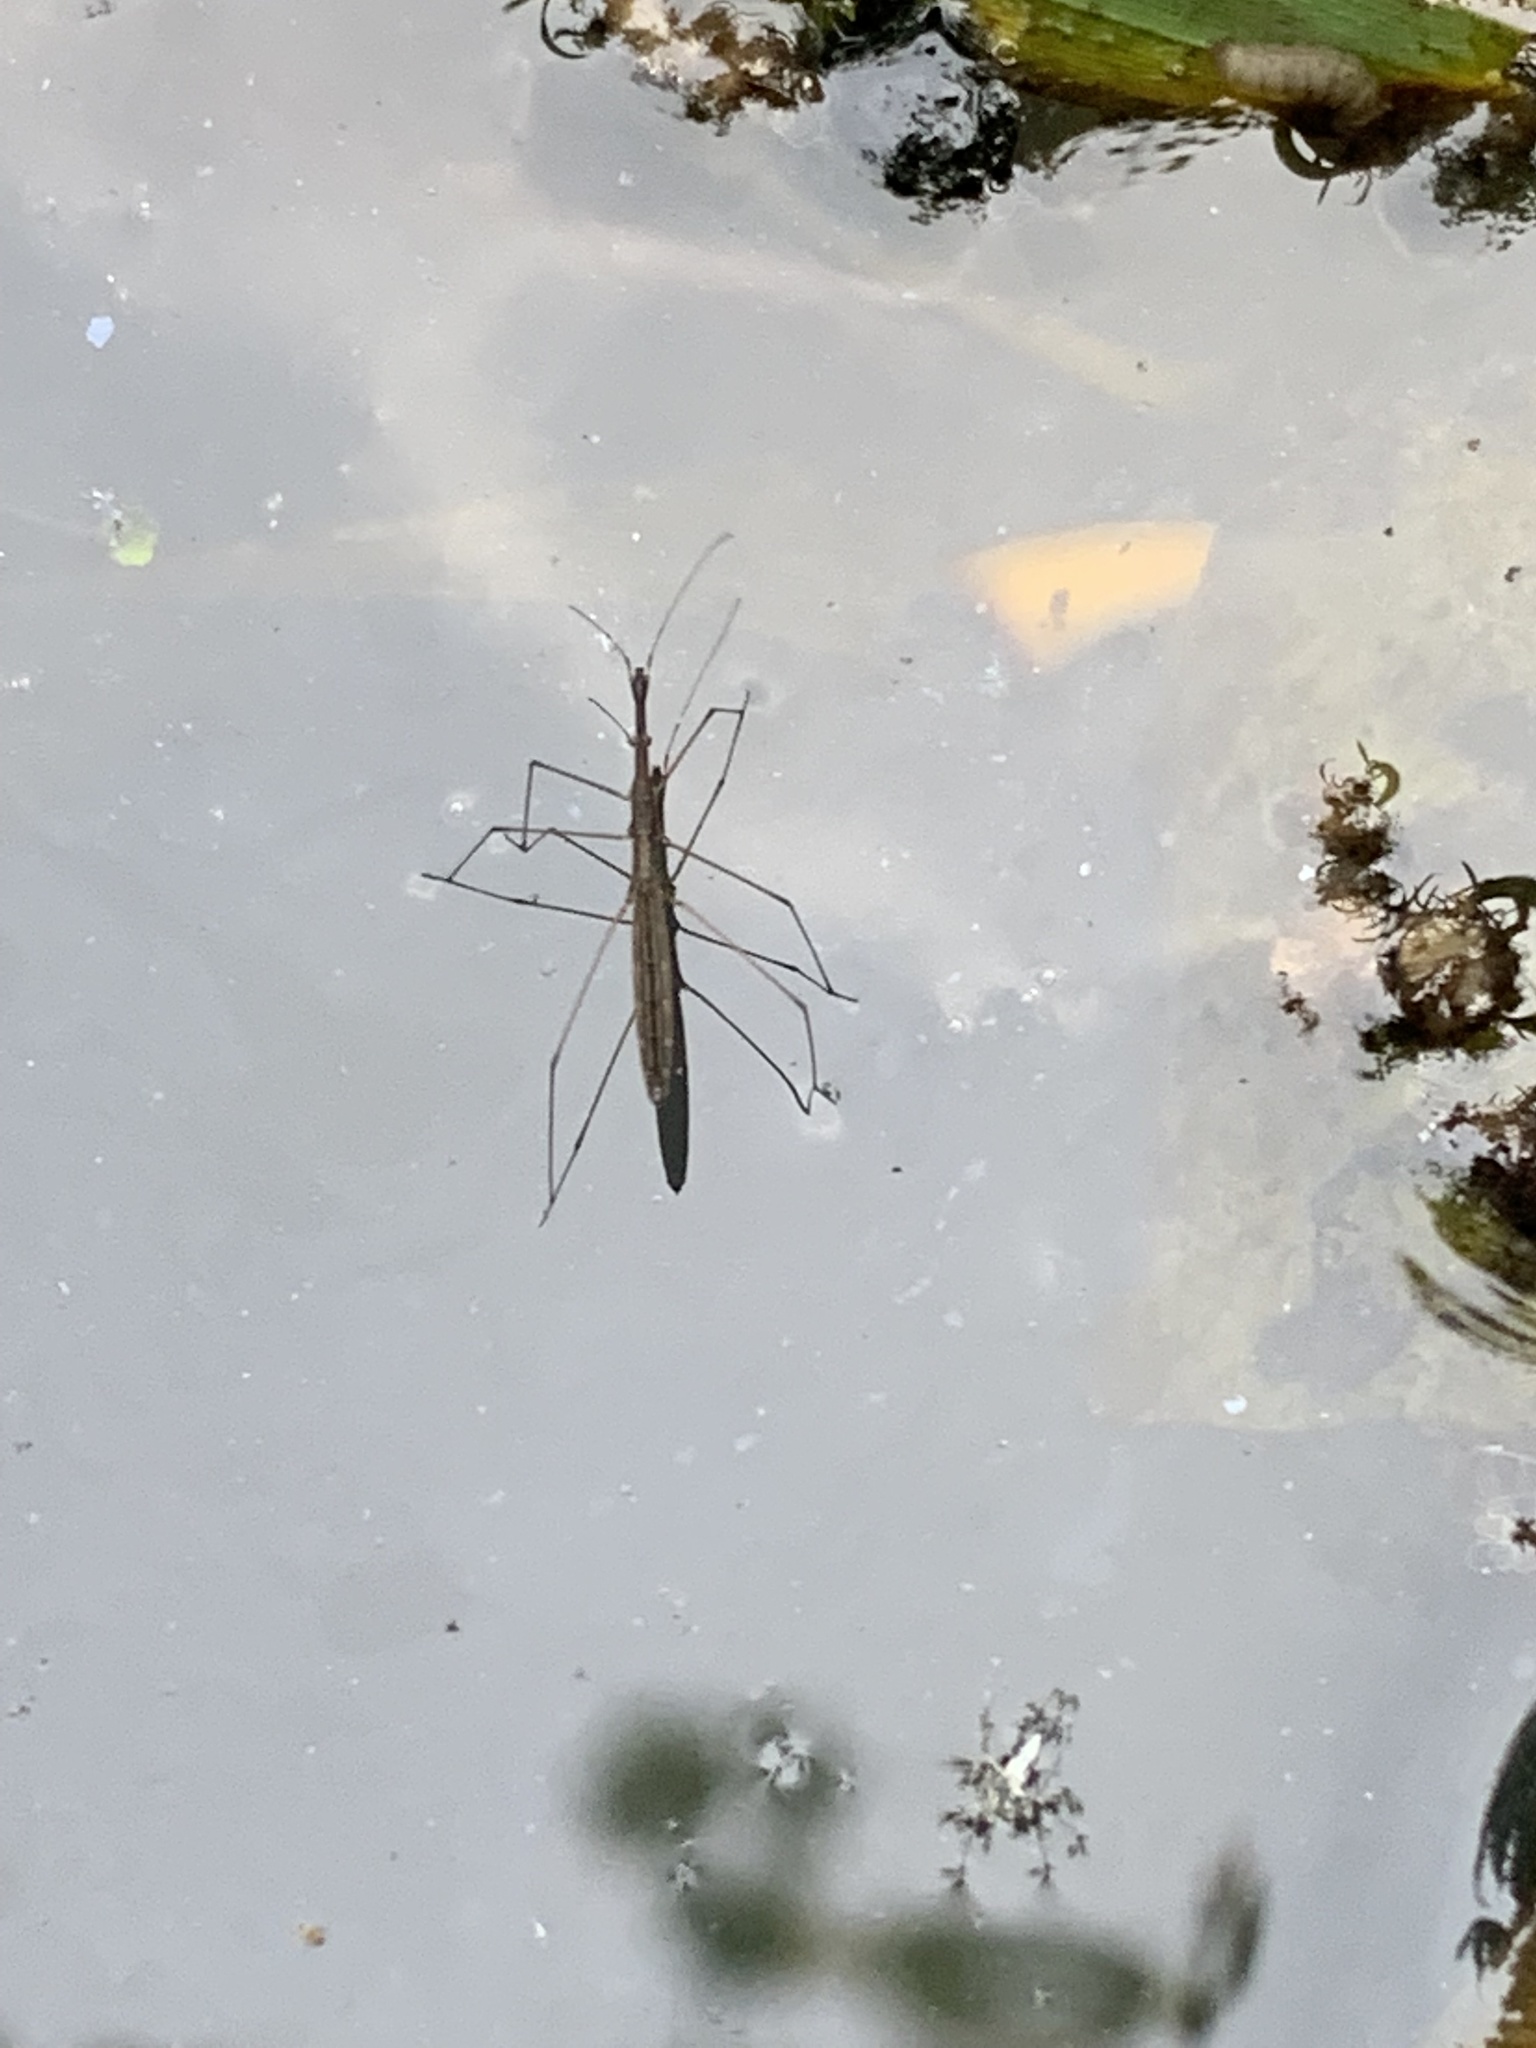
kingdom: Animalia
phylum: Arthropoda
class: Insecta
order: Hemiptera
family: Hydrometridae
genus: Hydrometra
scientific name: Hydrometra stagnorum
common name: Water measurer
